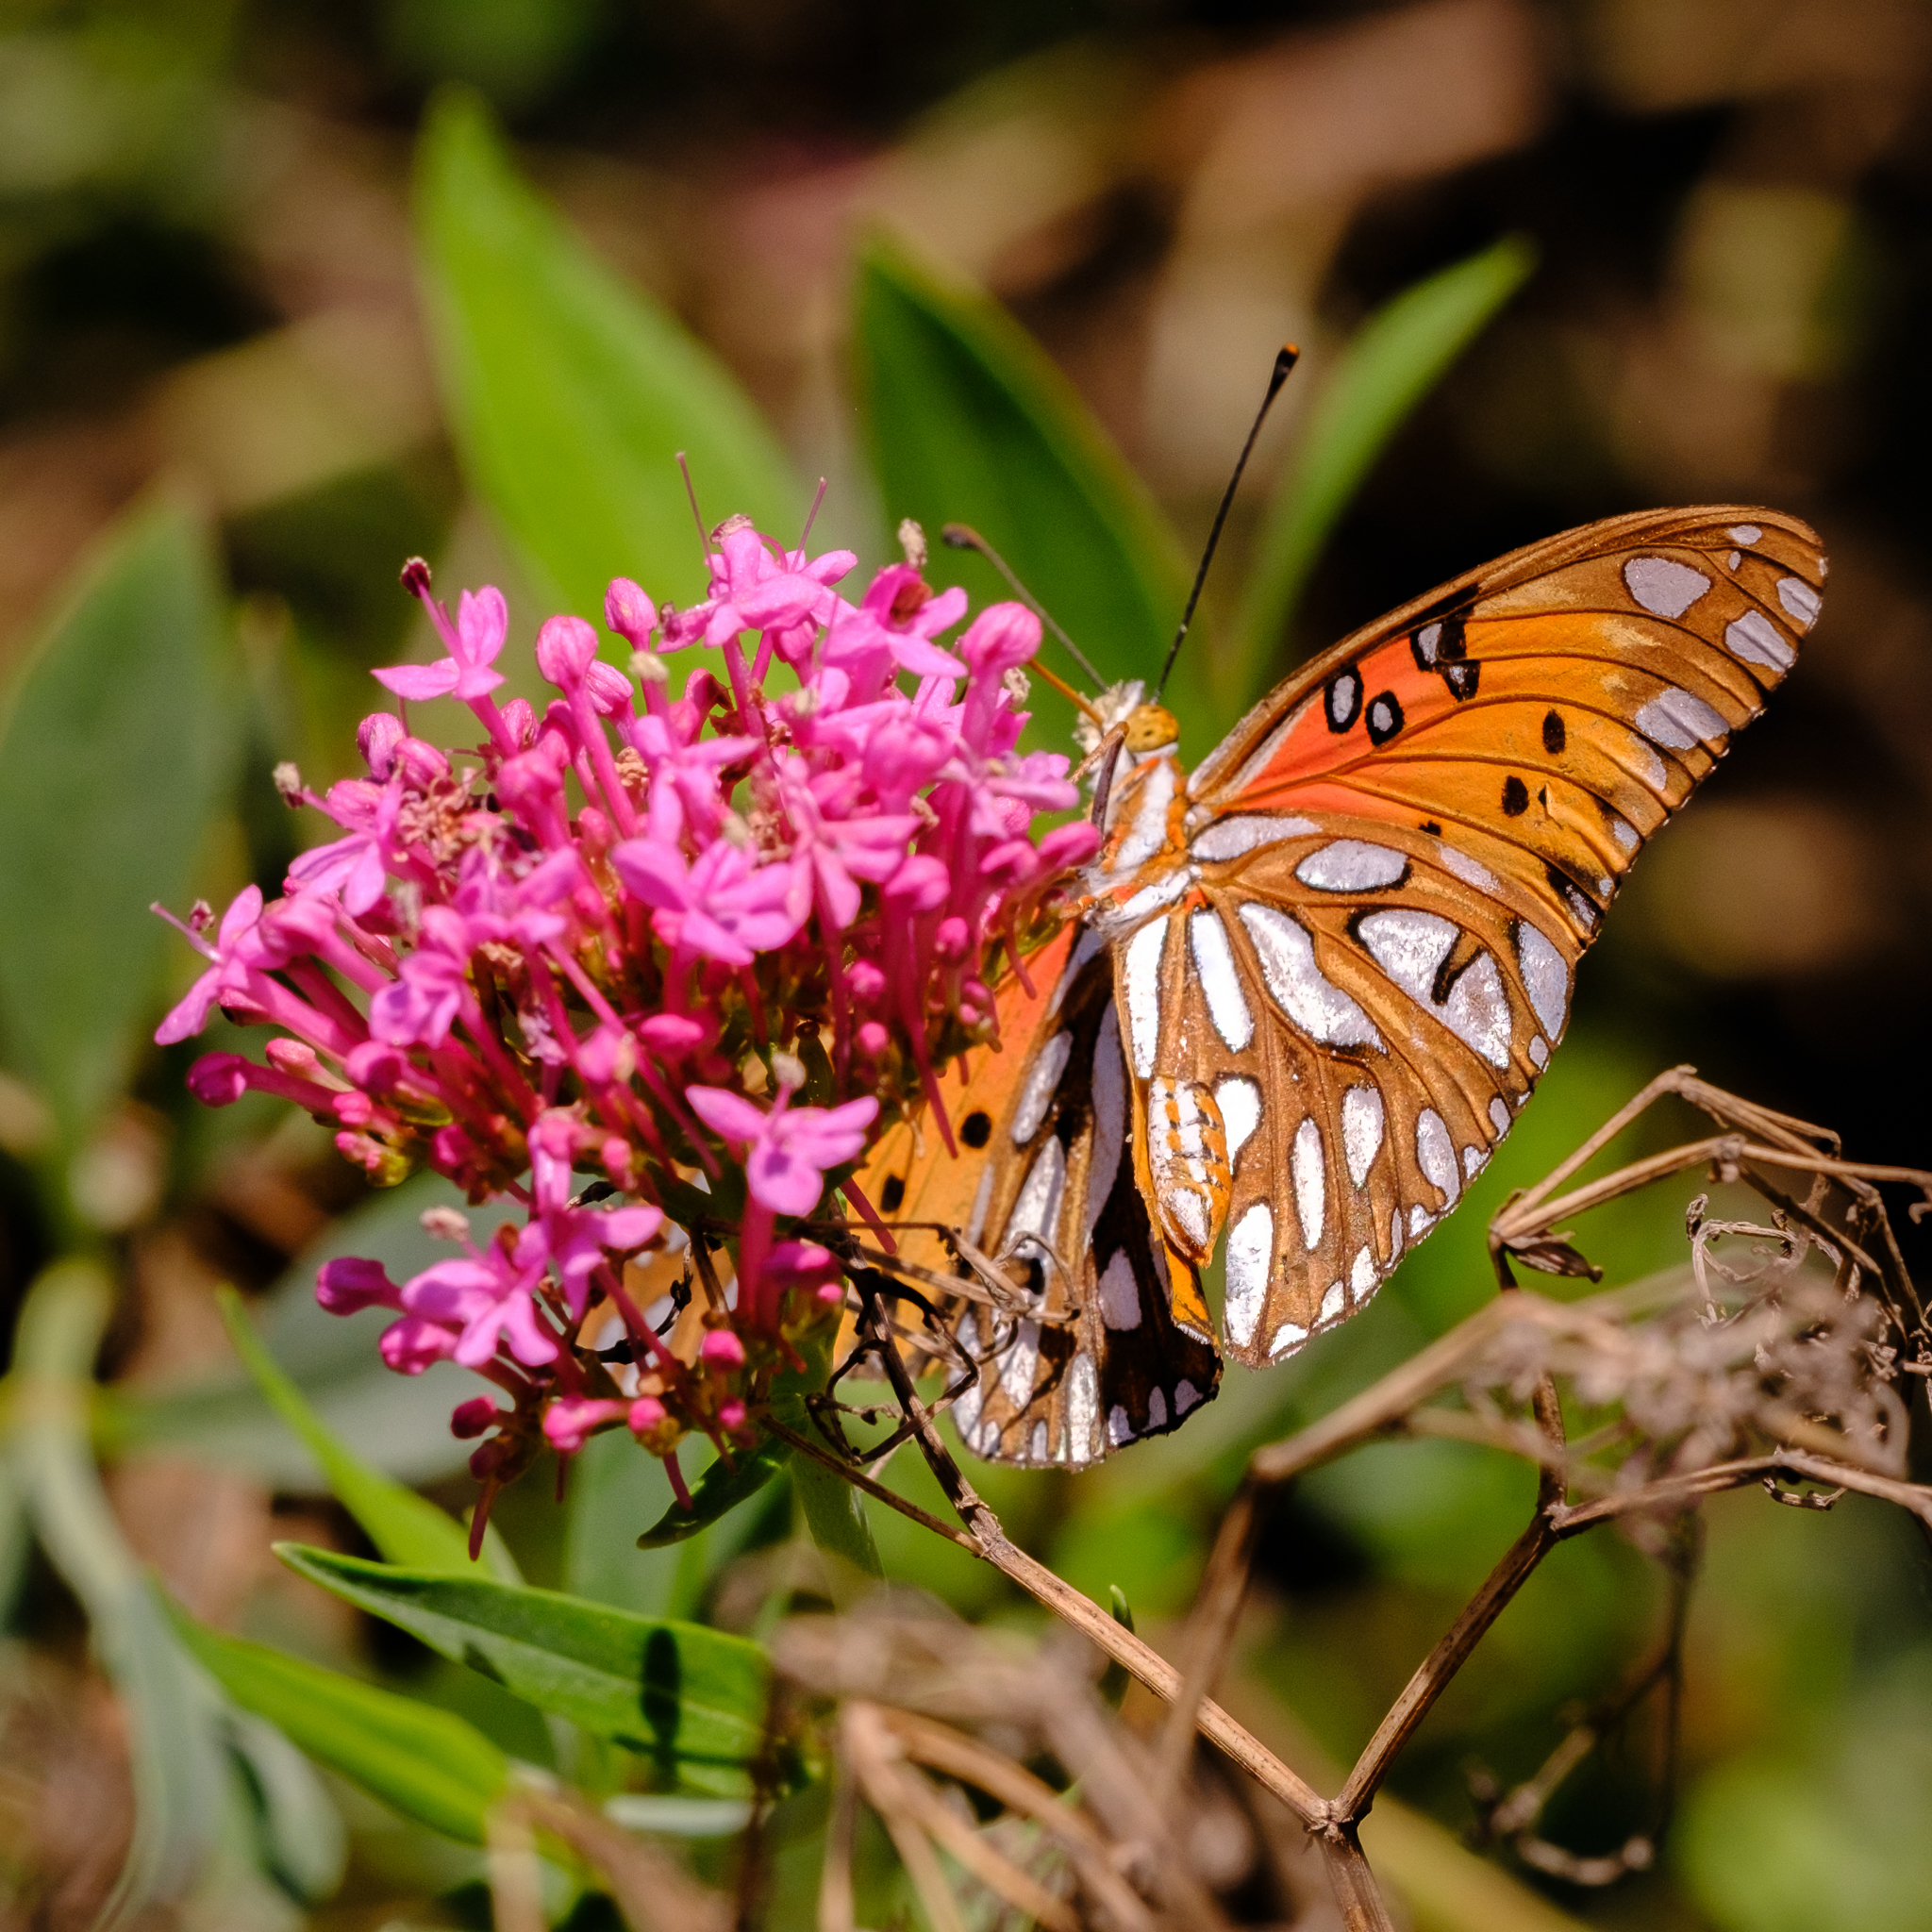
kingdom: Animalia
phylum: Arthropoda
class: Insecta
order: Lepidoptera
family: Nymphalidae
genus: Dione
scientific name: Dione vanillae
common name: Gulf fritillary
